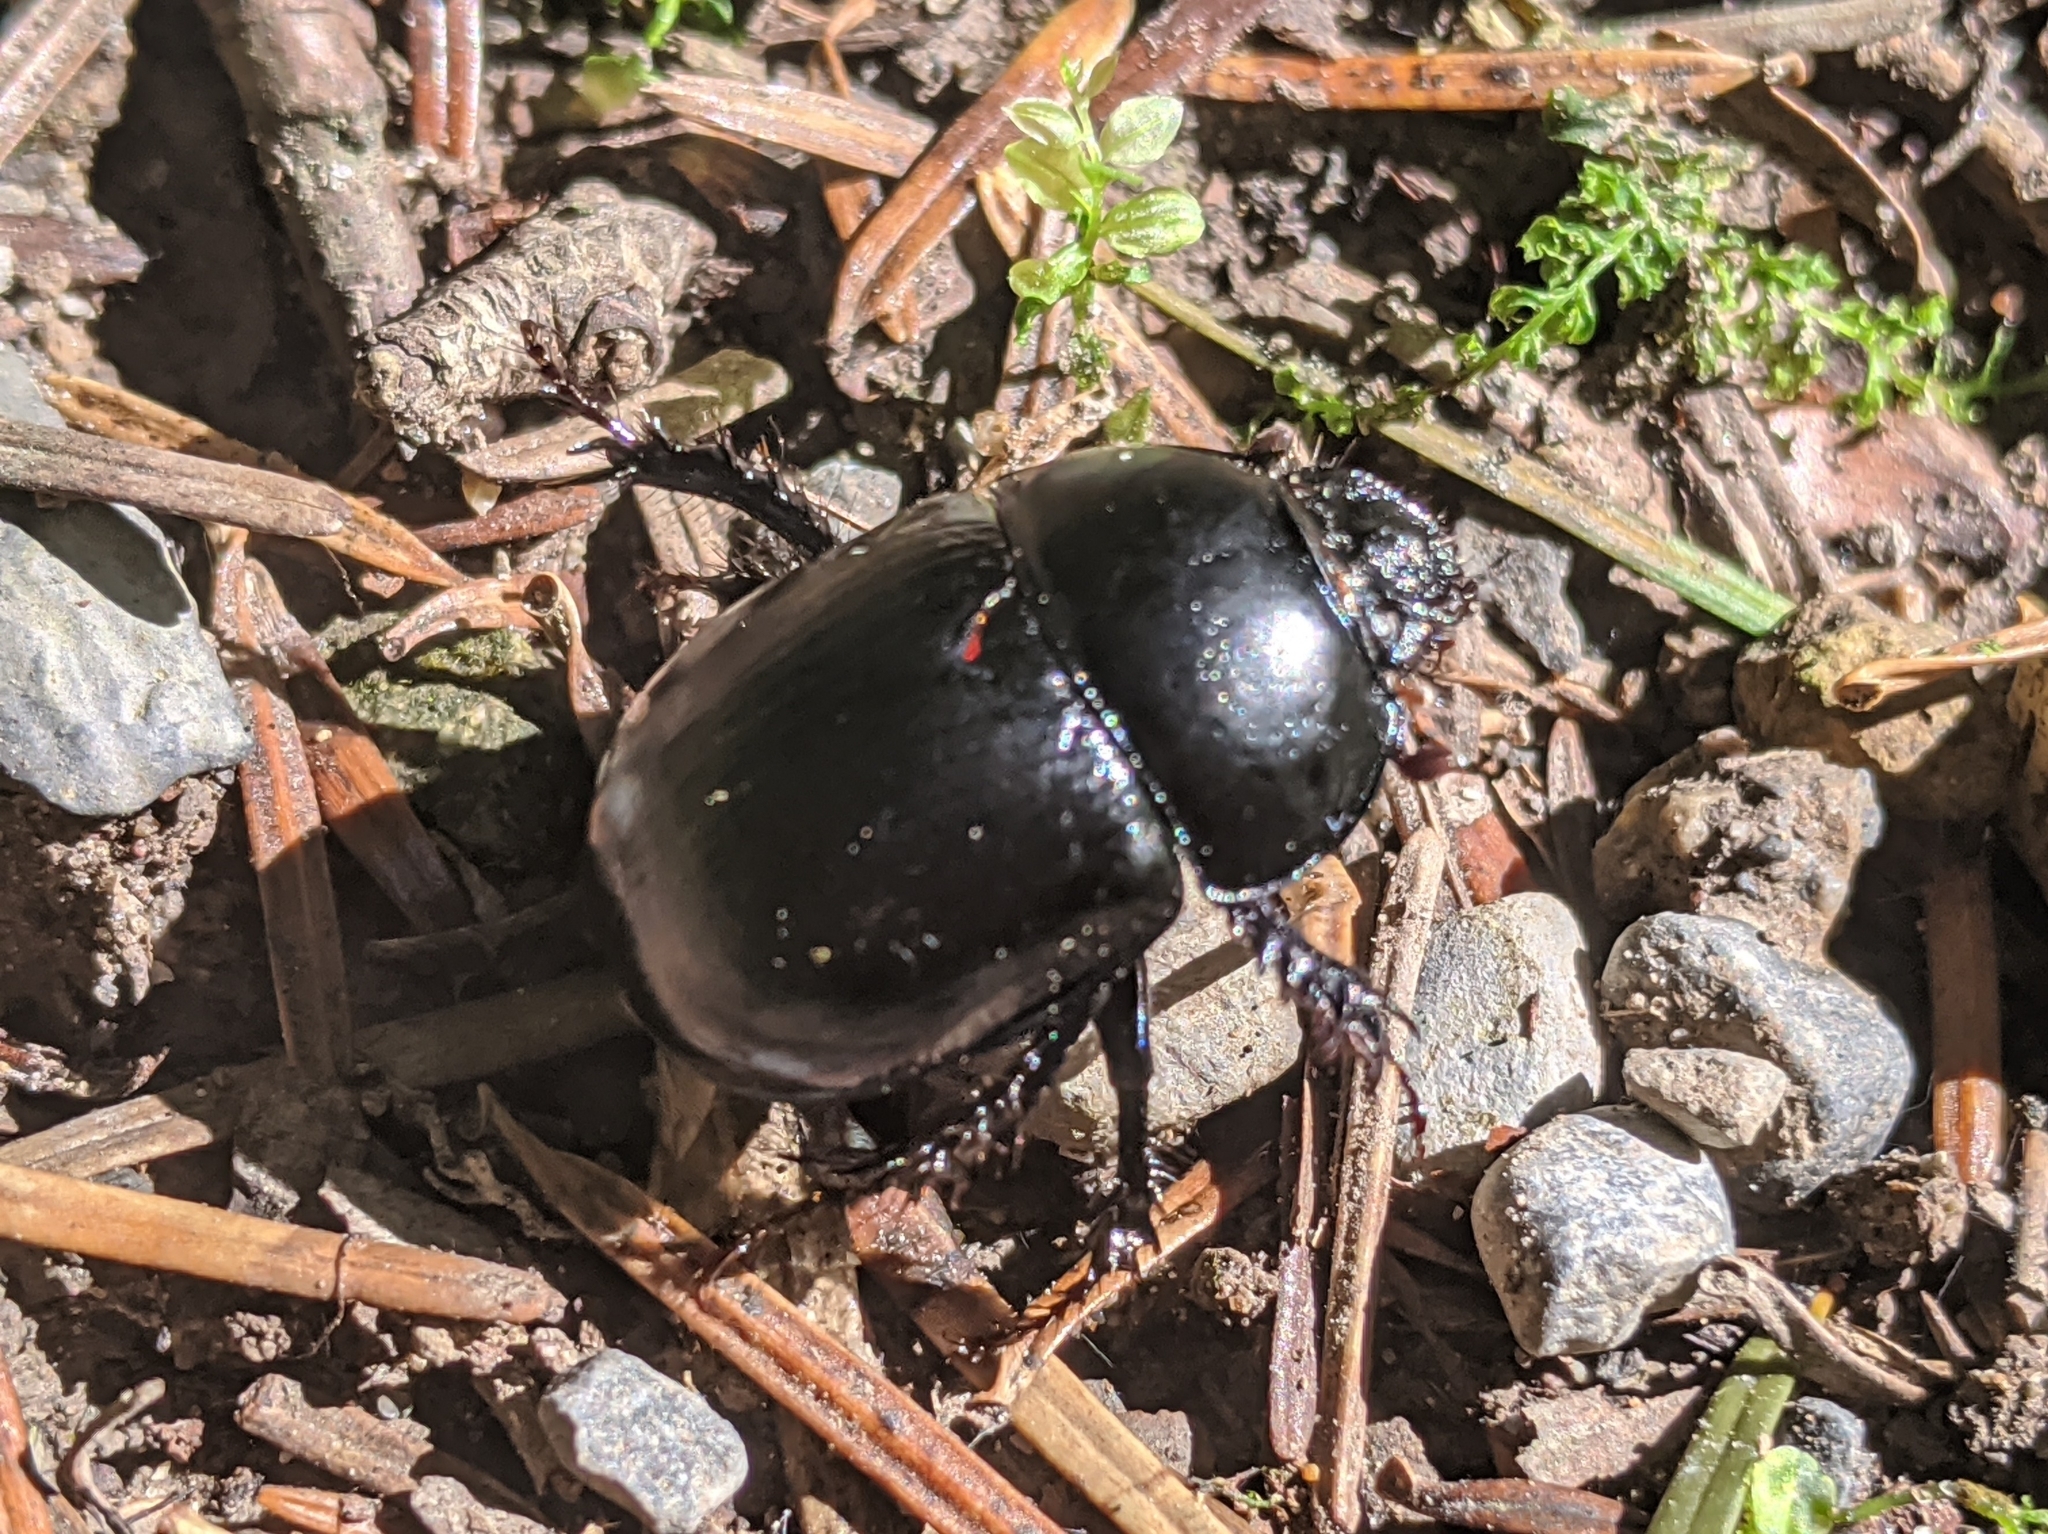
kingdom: Animalia
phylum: Arthropoda
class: Insecta
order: Coleoptera
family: Geotrupidae
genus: Anoplotrupes
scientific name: Anoplotrupes stercorosus
